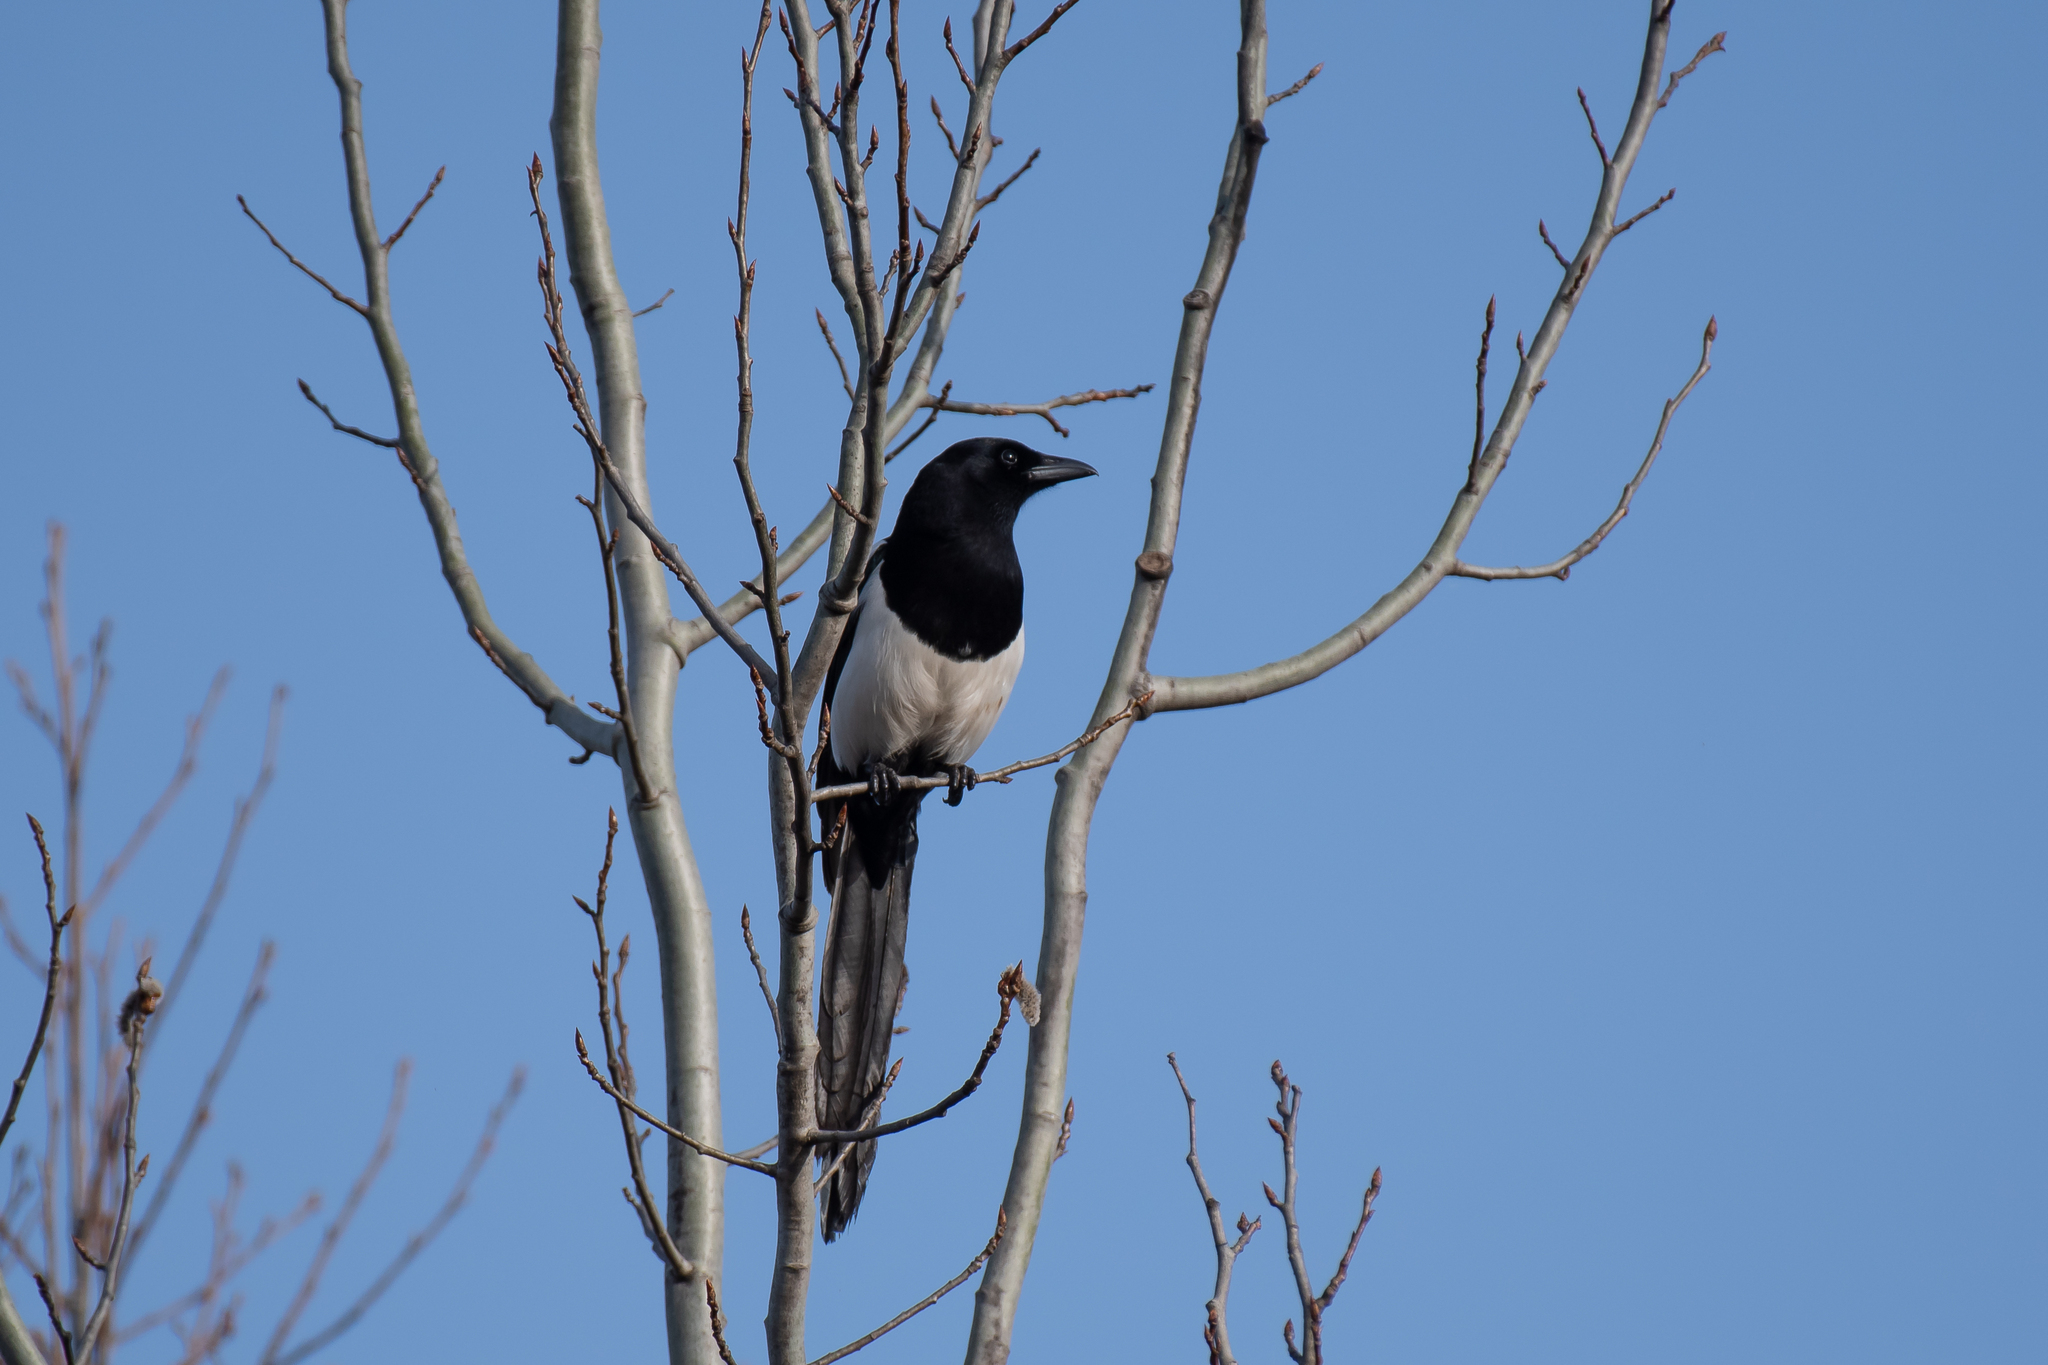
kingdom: Animalia
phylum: Chordata
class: Aves
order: Passeriformes
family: Corvidae
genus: Pica
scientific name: Pica pica
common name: Eurasian magpie
